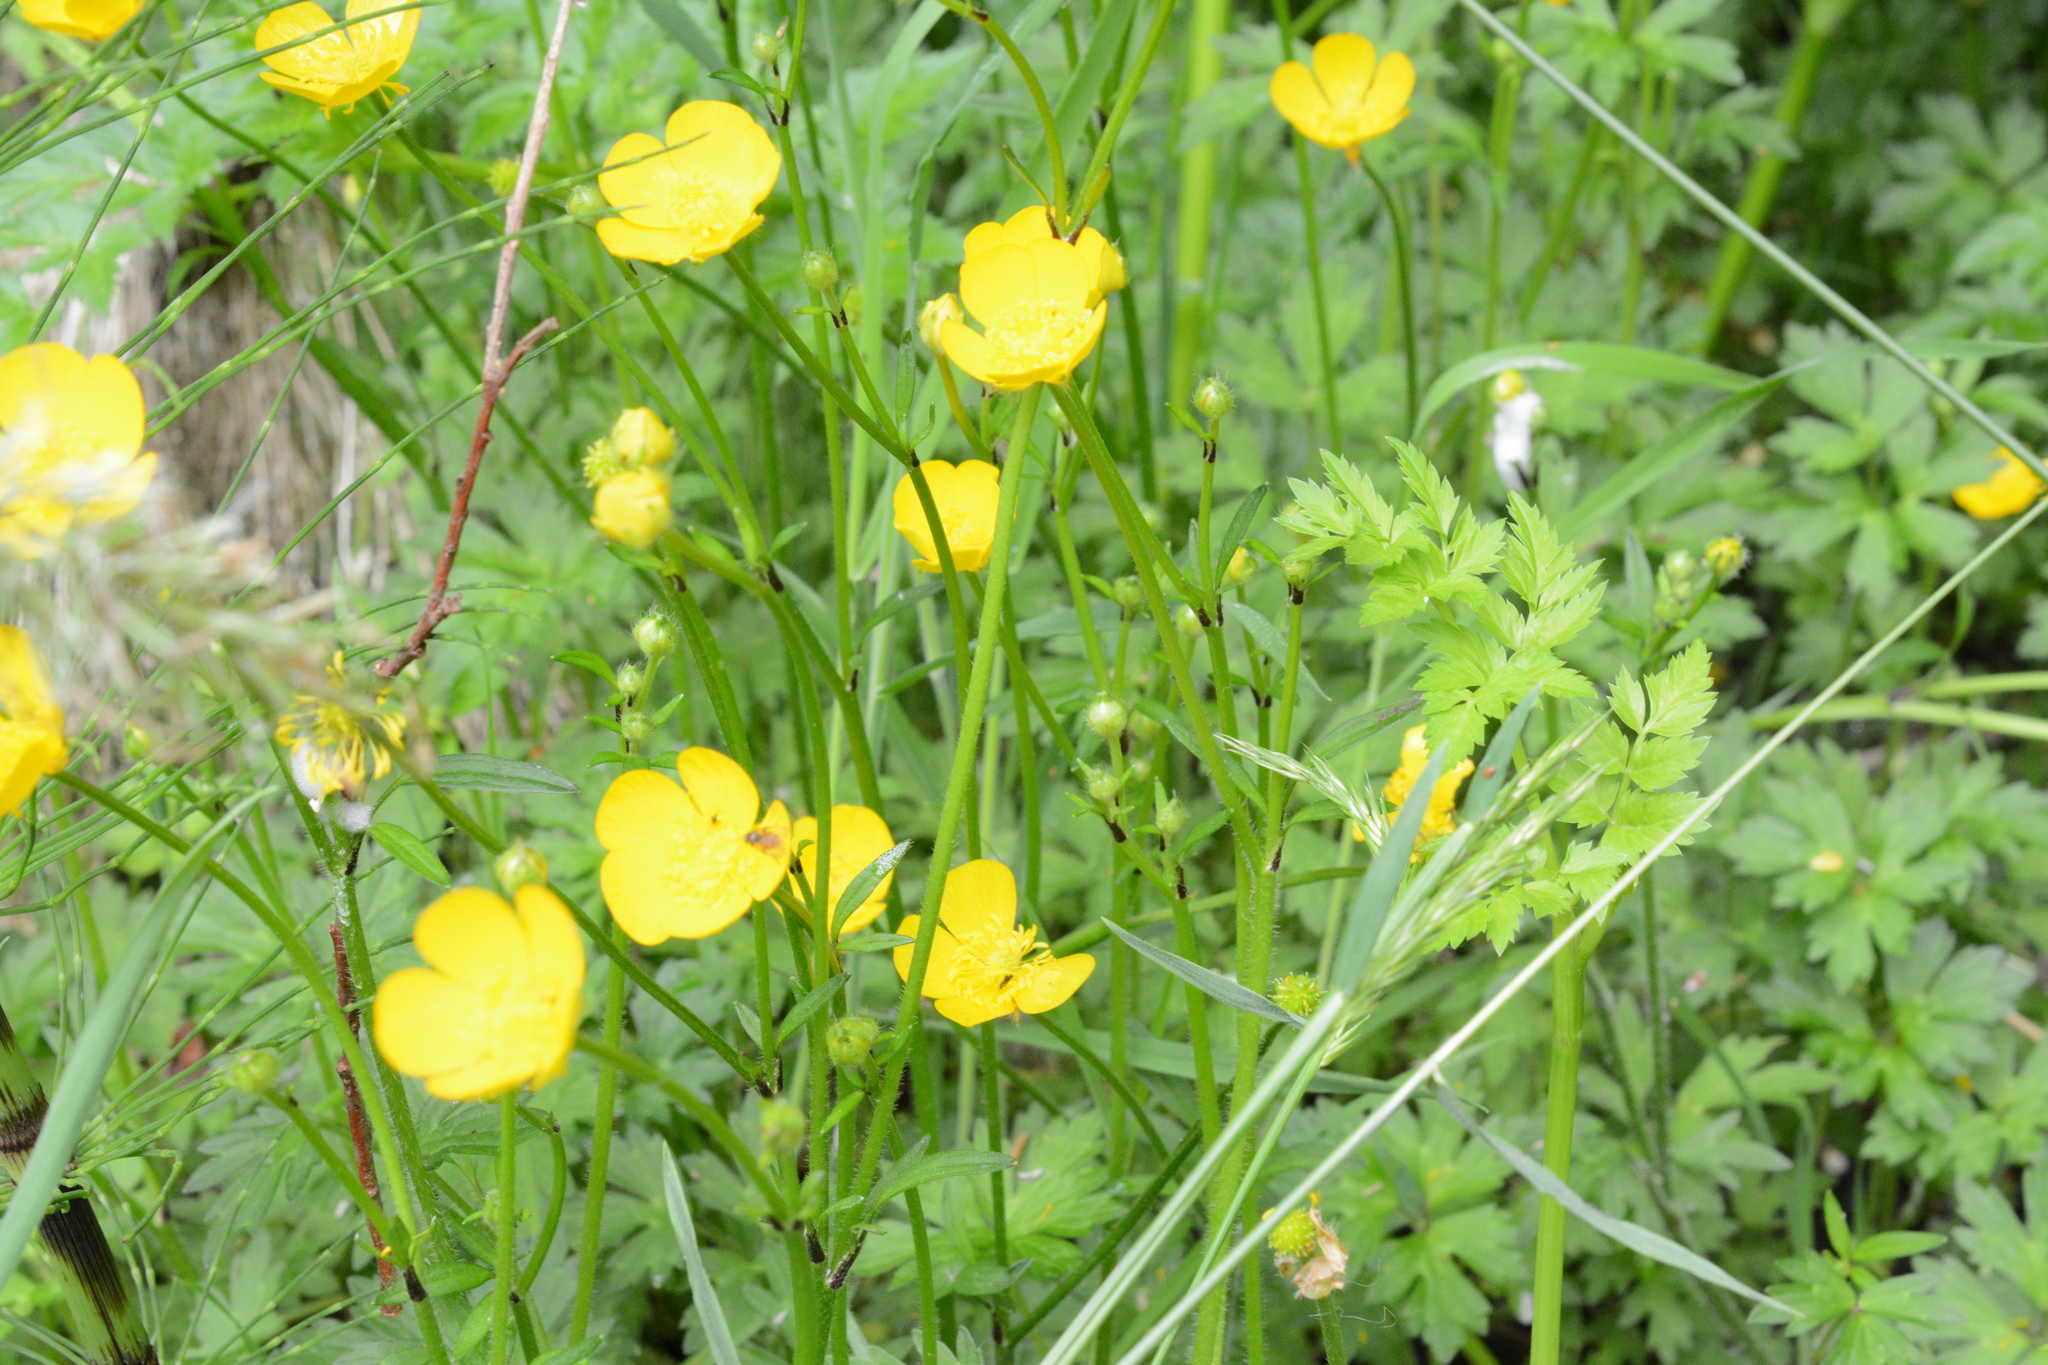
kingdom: Plantae
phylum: Tracheophyta
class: Magnoliopsida
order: Ranunculales
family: Ranunculaceae
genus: Ranunculus
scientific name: Ranunculus repens
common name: Creeping buttercup
